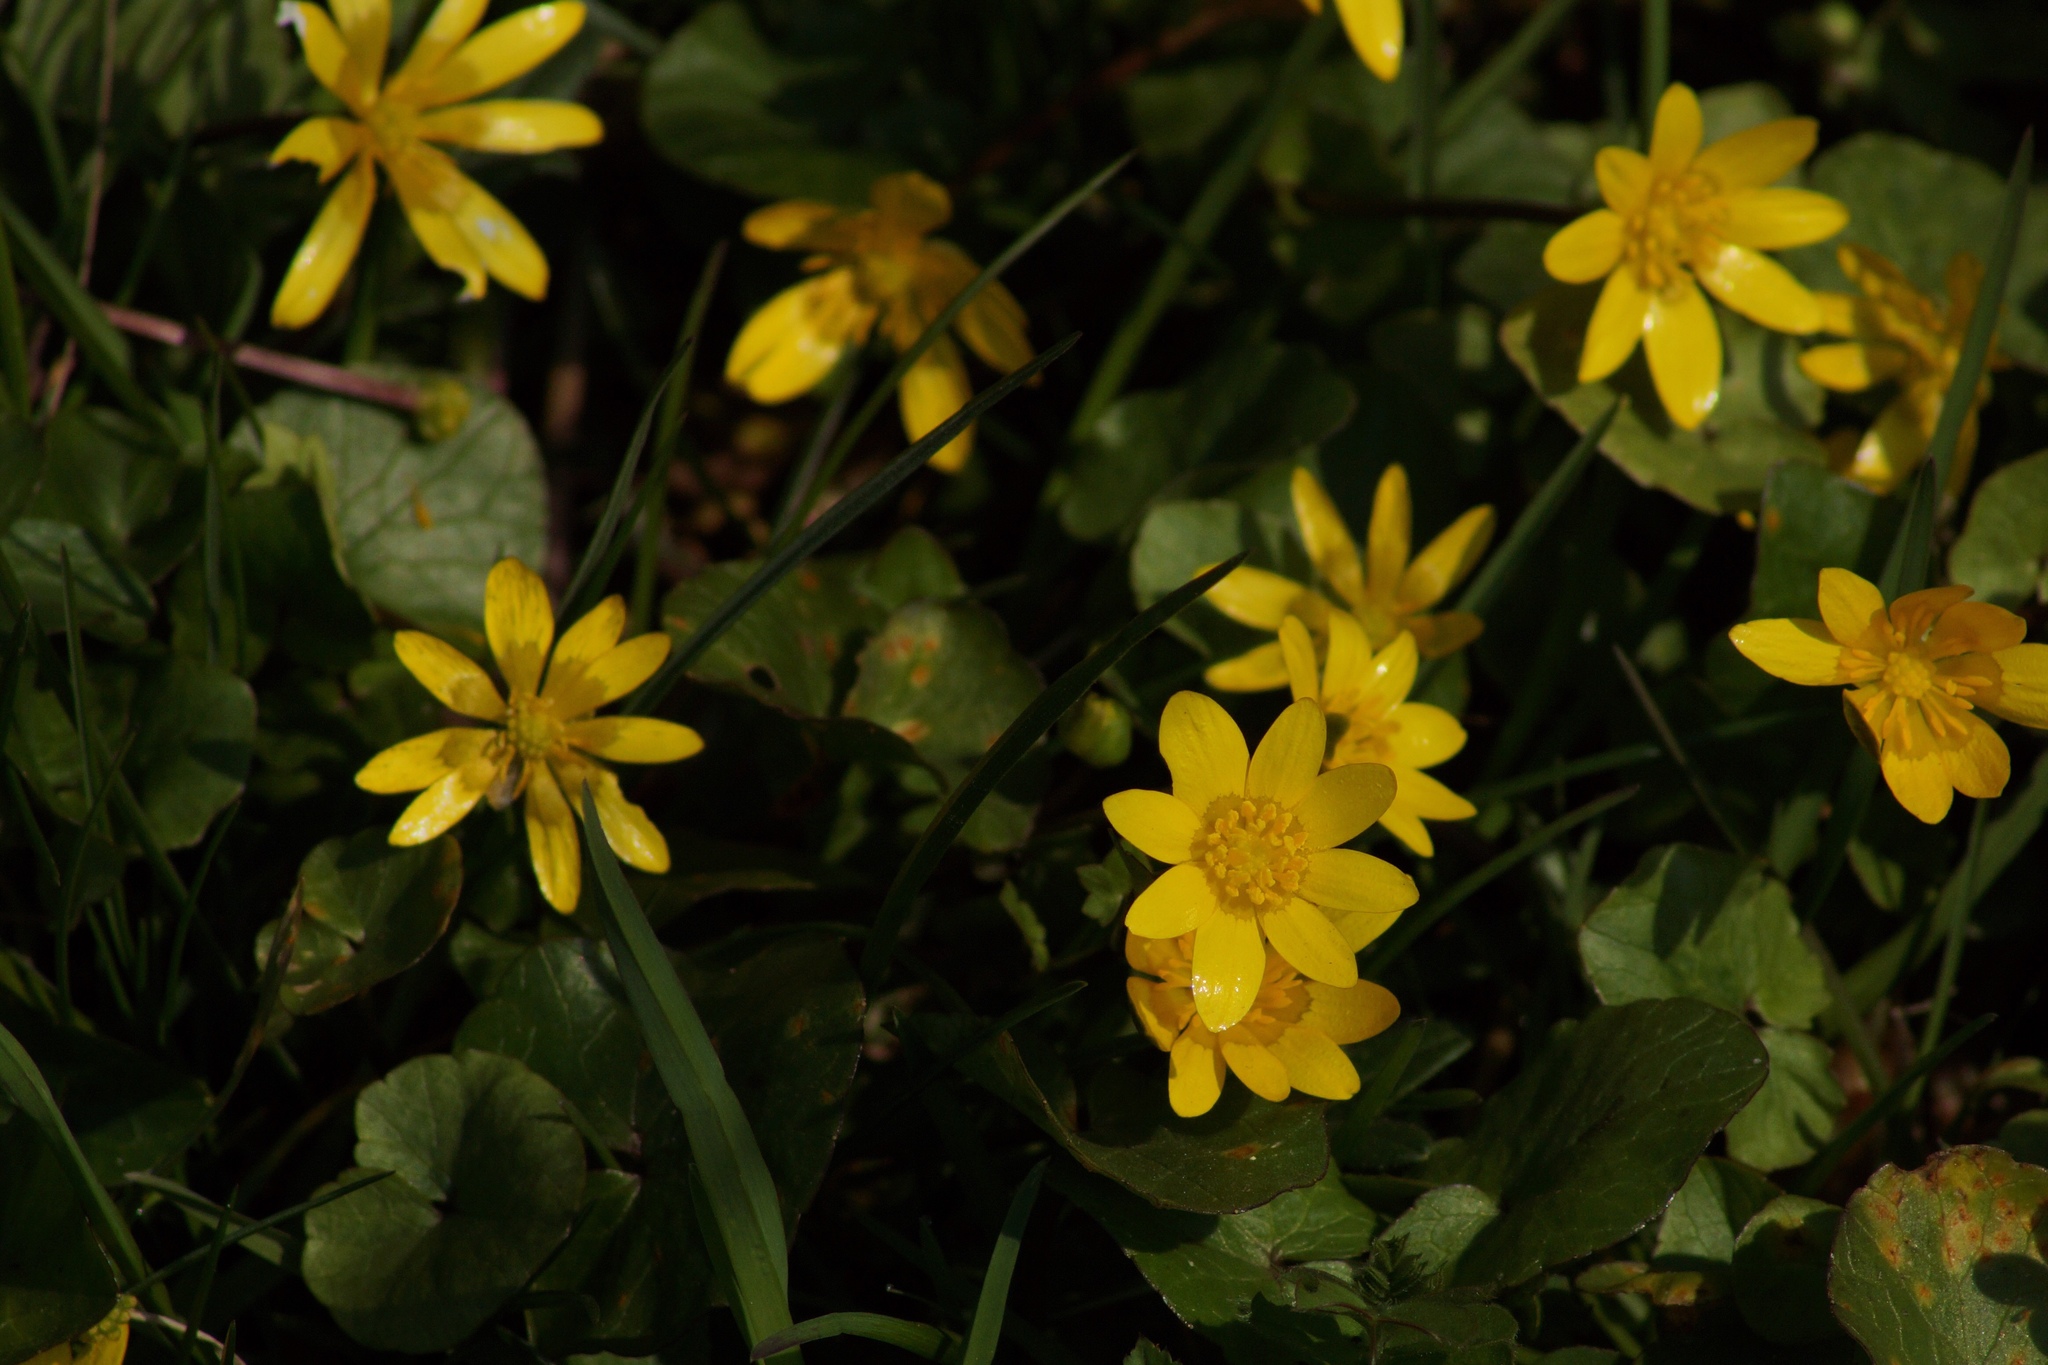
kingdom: Plantae
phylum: Tracheophyta
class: Magnoliopsida
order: Ranunculales
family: Ranunculaceae
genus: Ficaria
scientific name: Ficaria verna
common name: Lesser celandine
